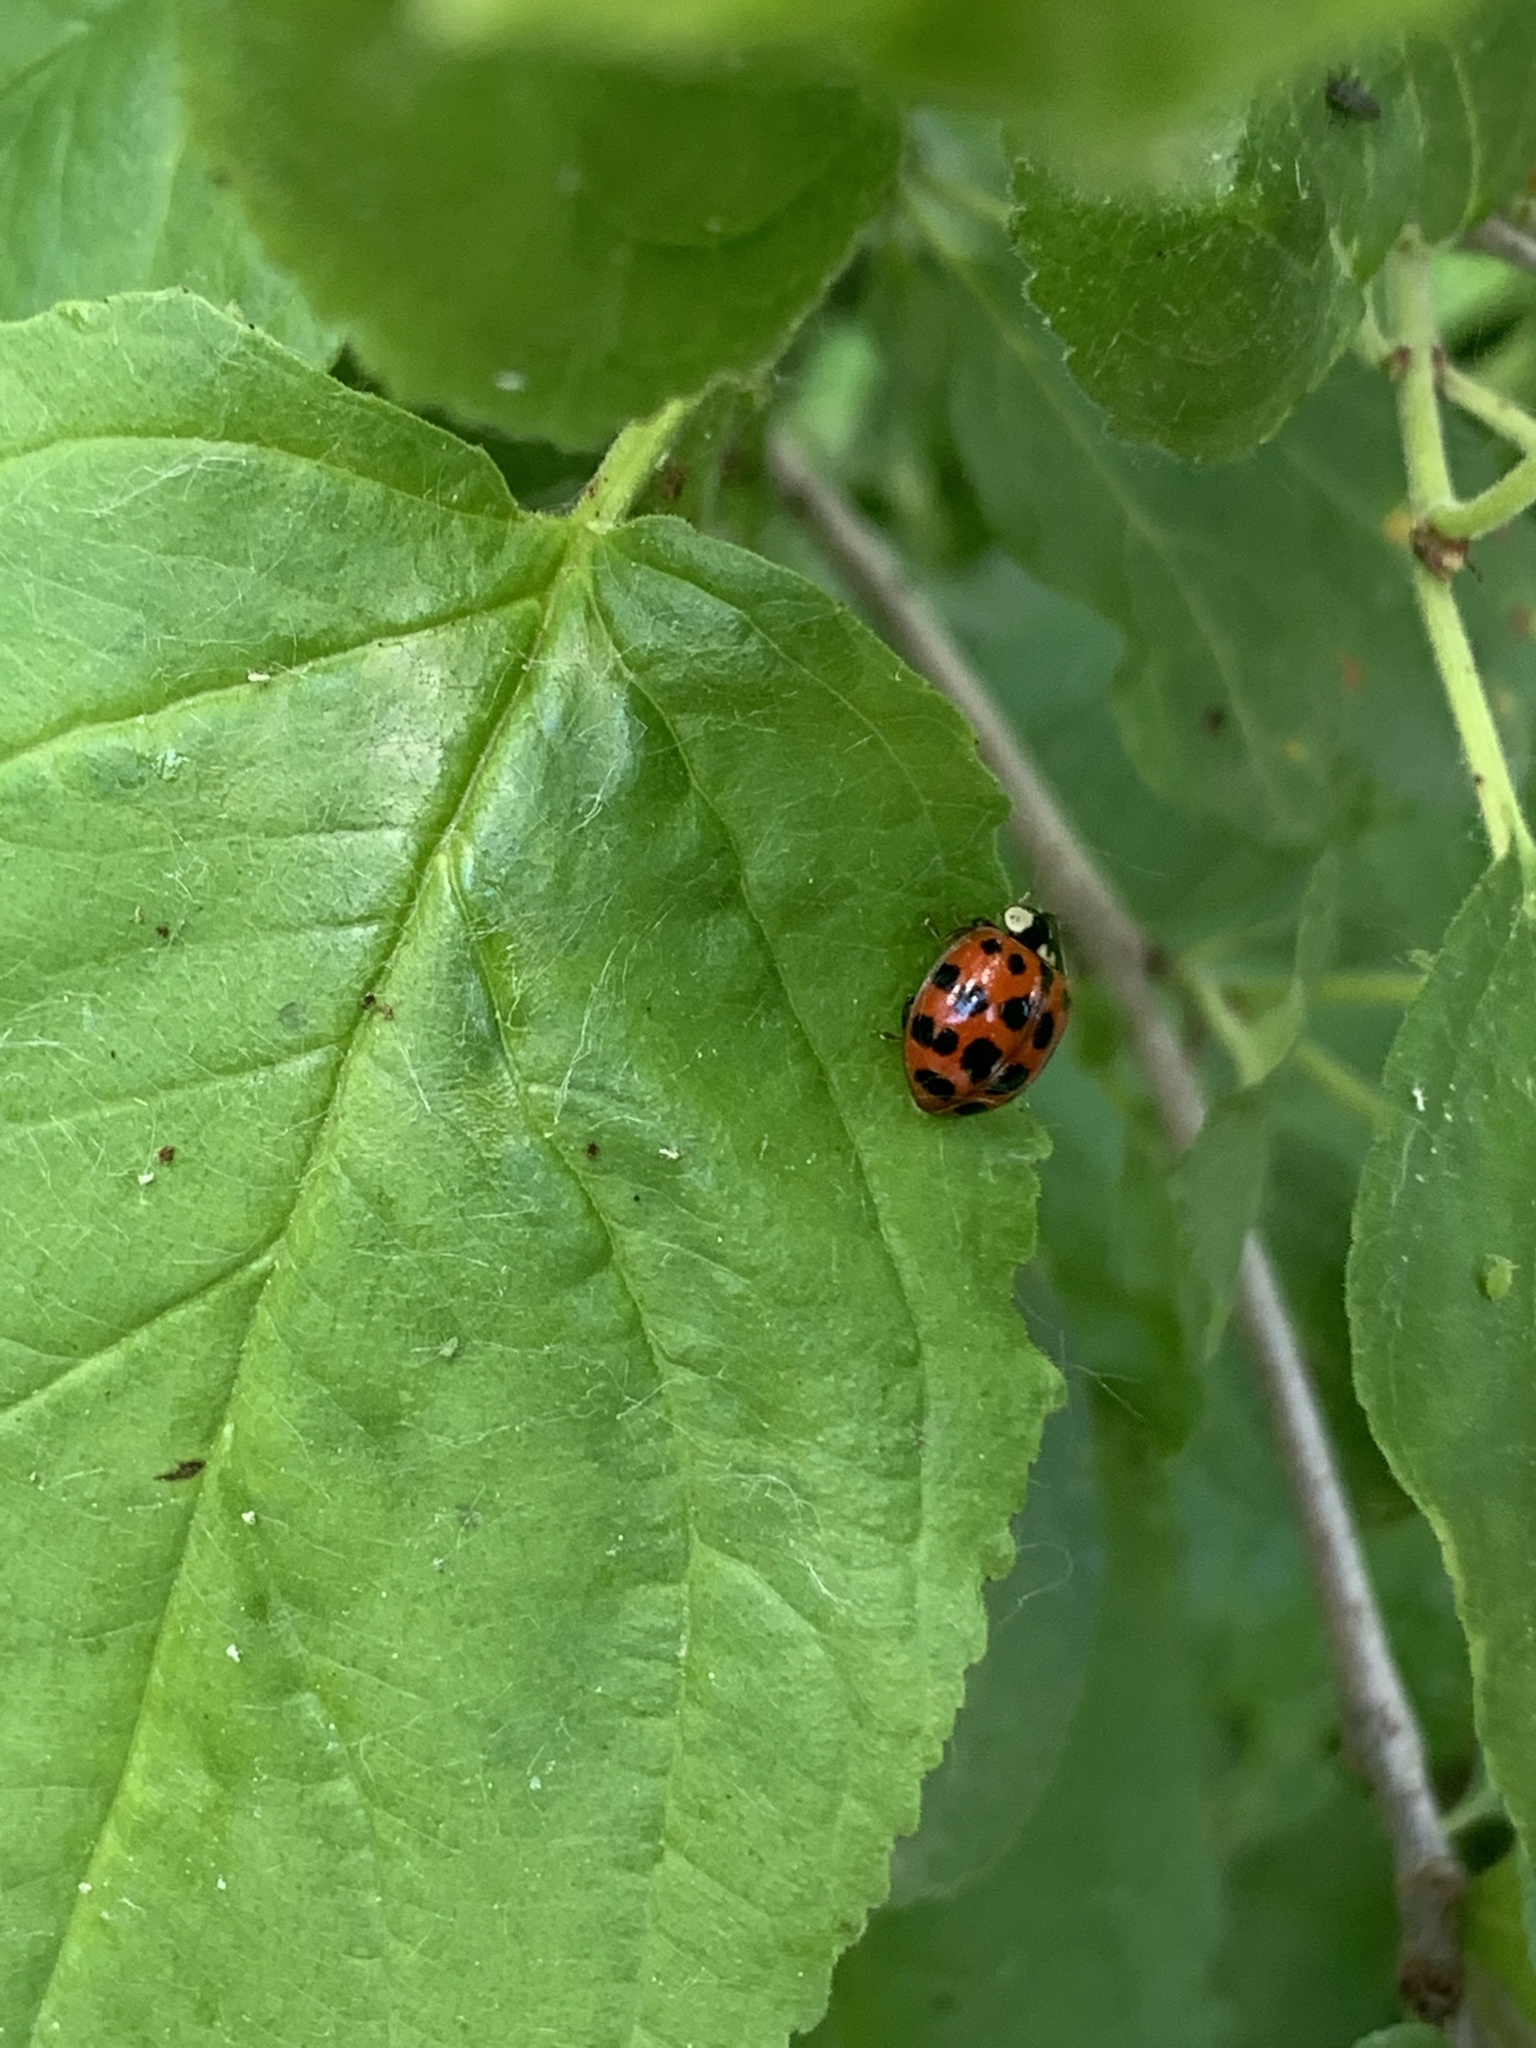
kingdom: Animalia
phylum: Arthropoda
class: Insecta
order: Coleoptera
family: Coccinellidae
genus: Harmonia
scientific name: Harmonia axyridis
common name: Harlequin ladybird
